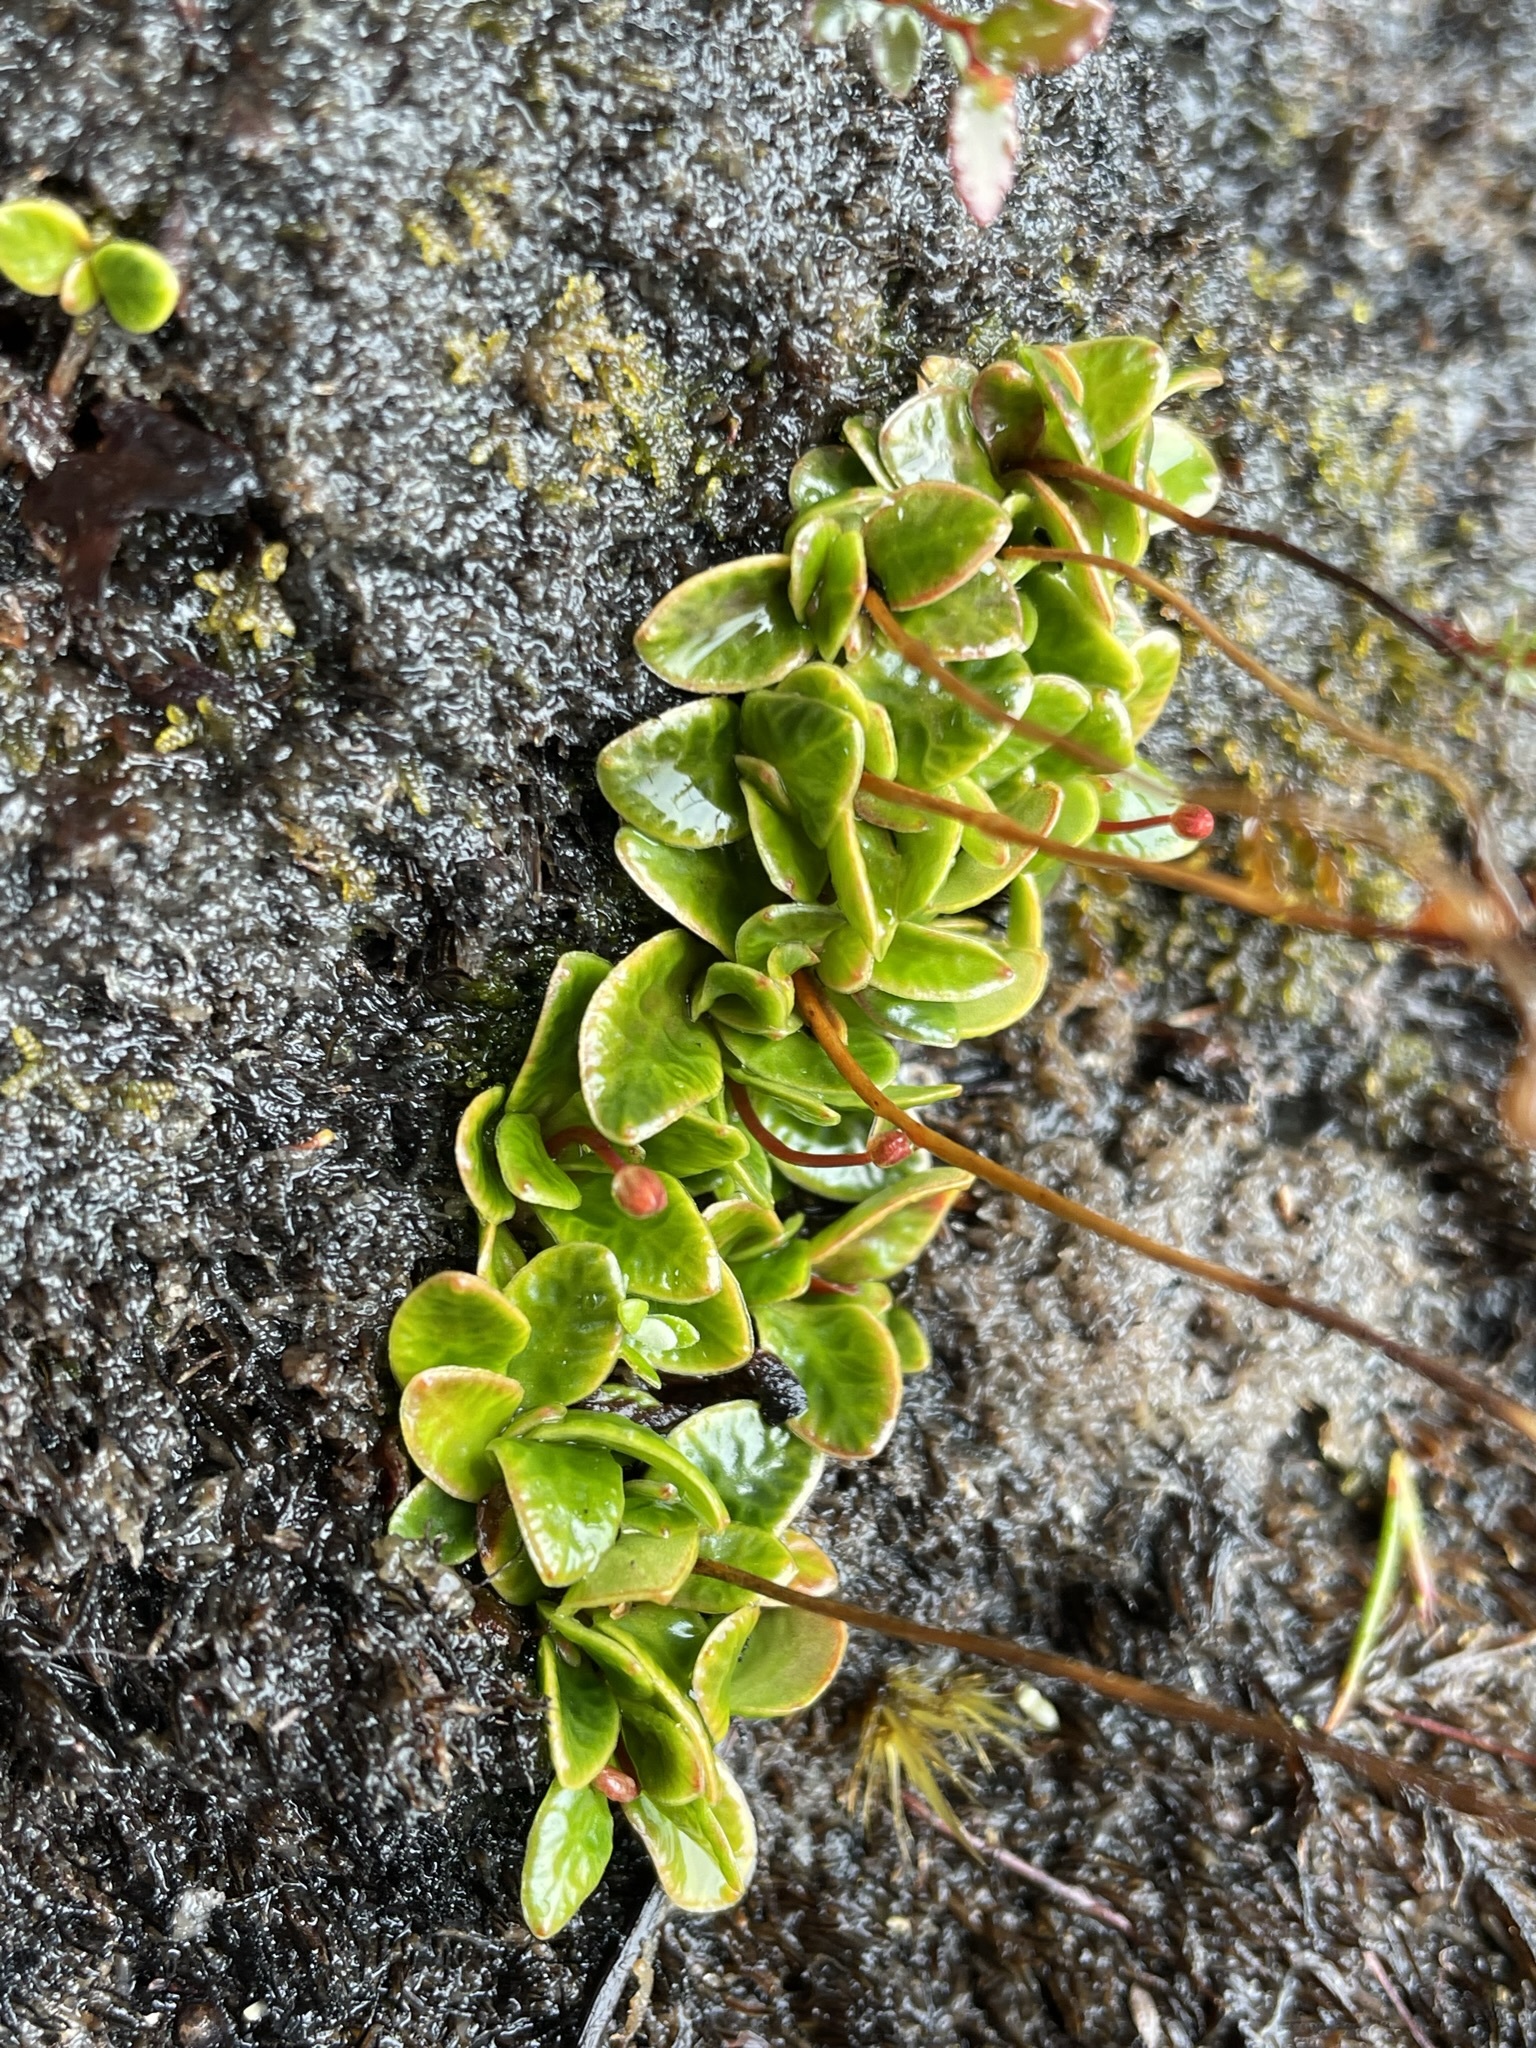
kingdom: Plantae
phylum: Tracheophyta
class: Magnoliopsida
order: Asterales
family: Stylidiaceae
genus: Forstera
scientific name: Forstera bellidifolia
